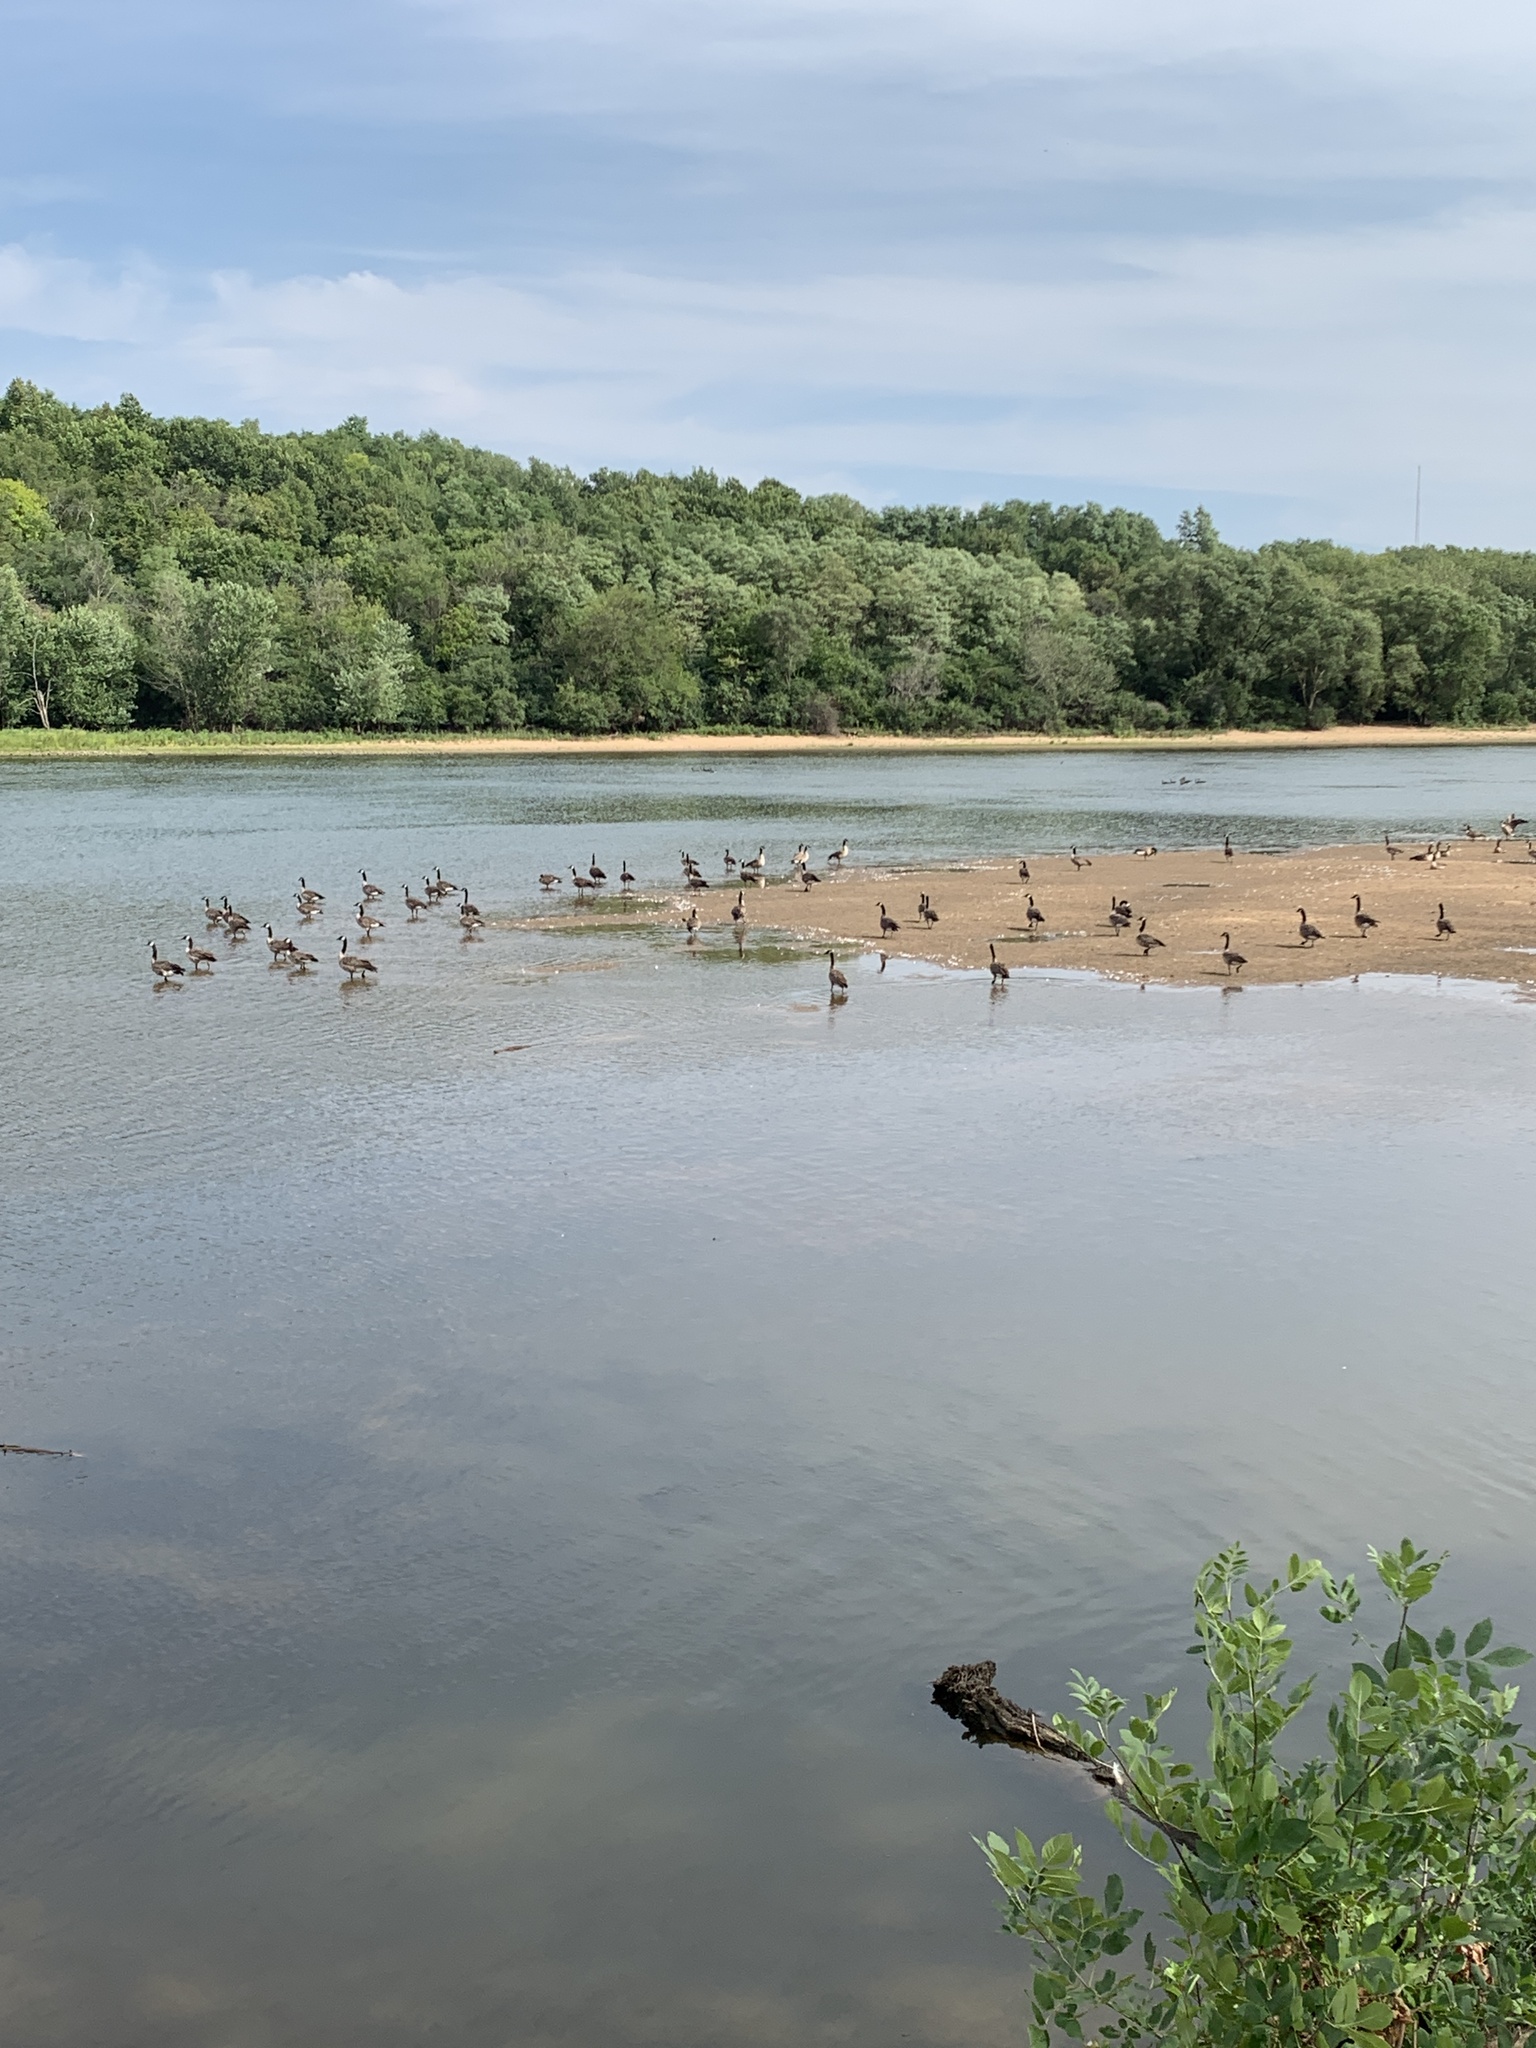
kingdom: Animalia
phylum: Chordata
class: Aves
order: Anseriformes
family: Anatidae
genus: Branta
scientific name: Branta canadensis
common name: Canada goose
